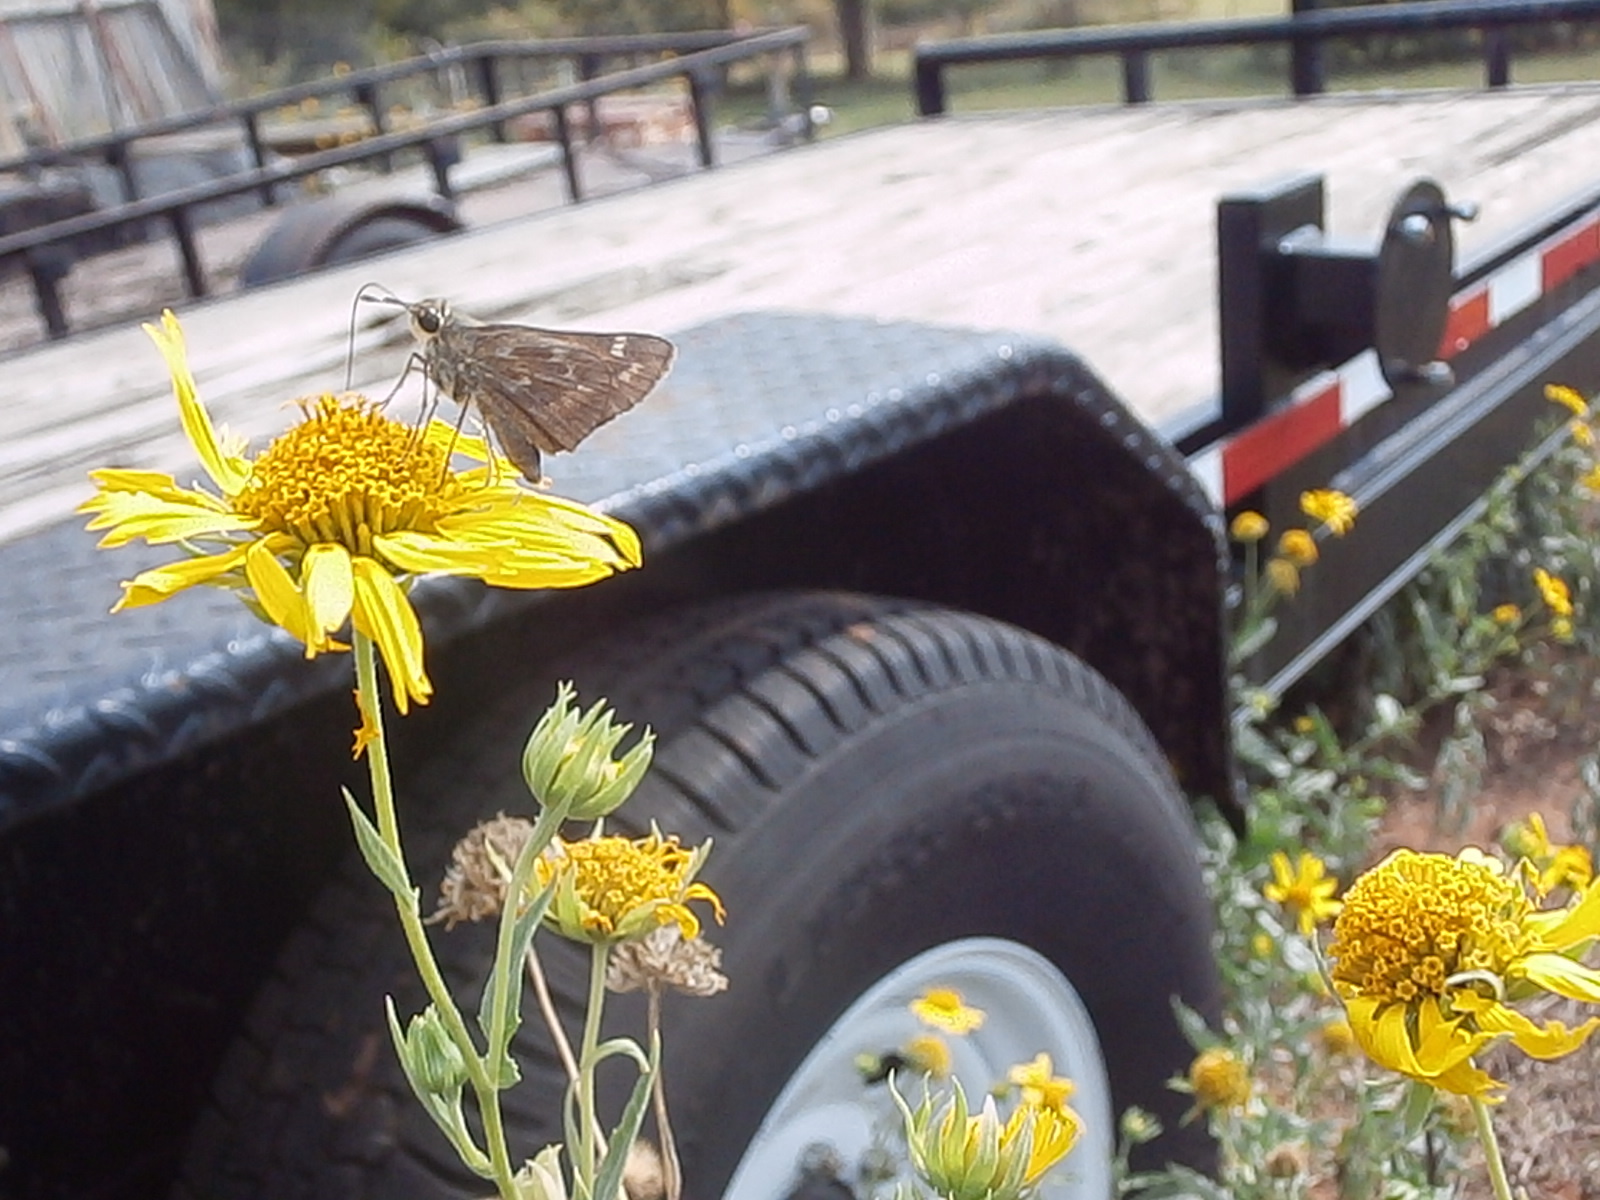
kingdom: Animalia
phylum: Arthropoda
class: Insecta
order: Lepidoptera
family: Hesperiidae
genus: Atalopedes
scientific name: Atalopedes
